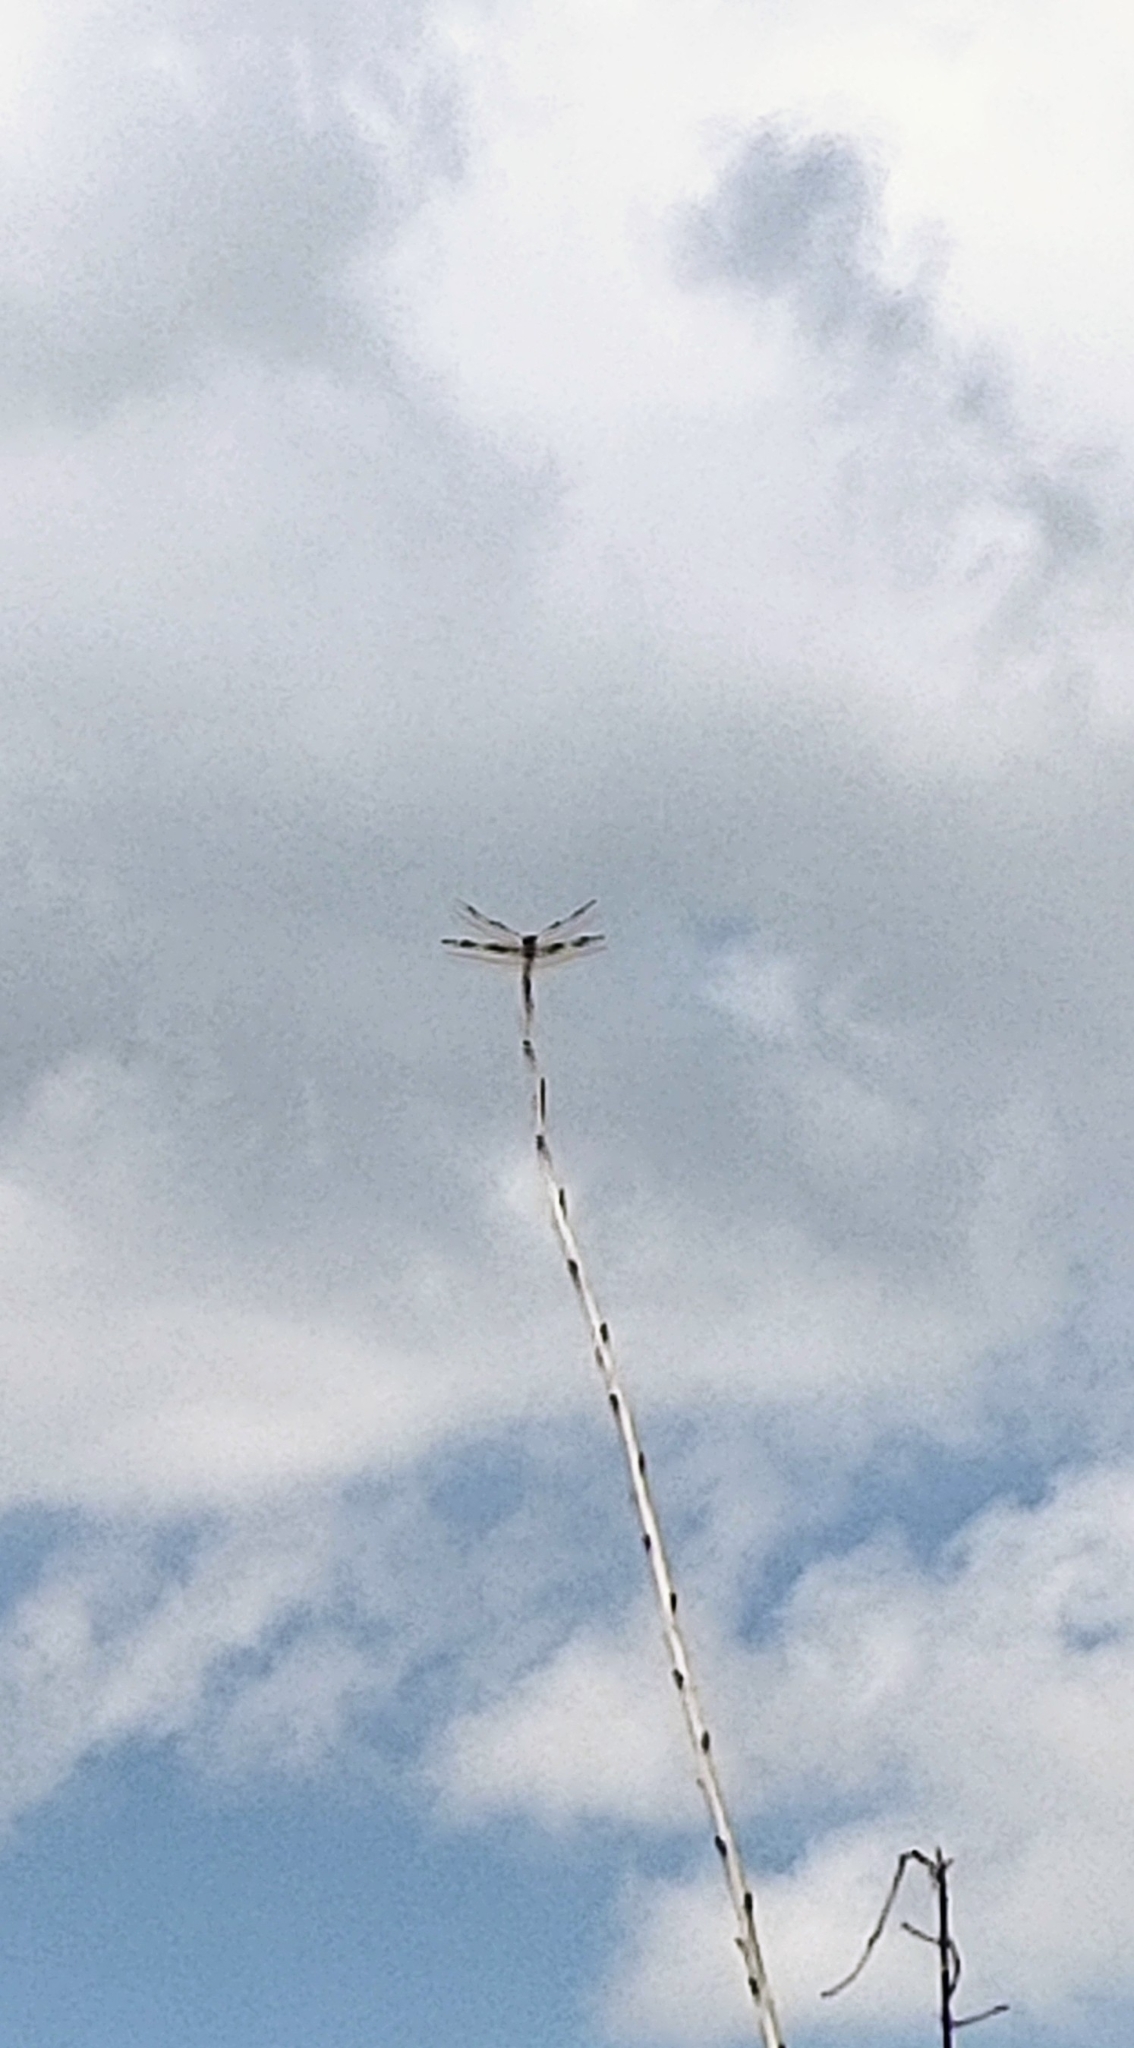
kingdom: Animalia
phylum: Arthropoda
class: Insecta
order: Odonata
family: Libellulidae
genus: Celithemis
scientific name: Celithemis eponina
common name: Halloween pennant
